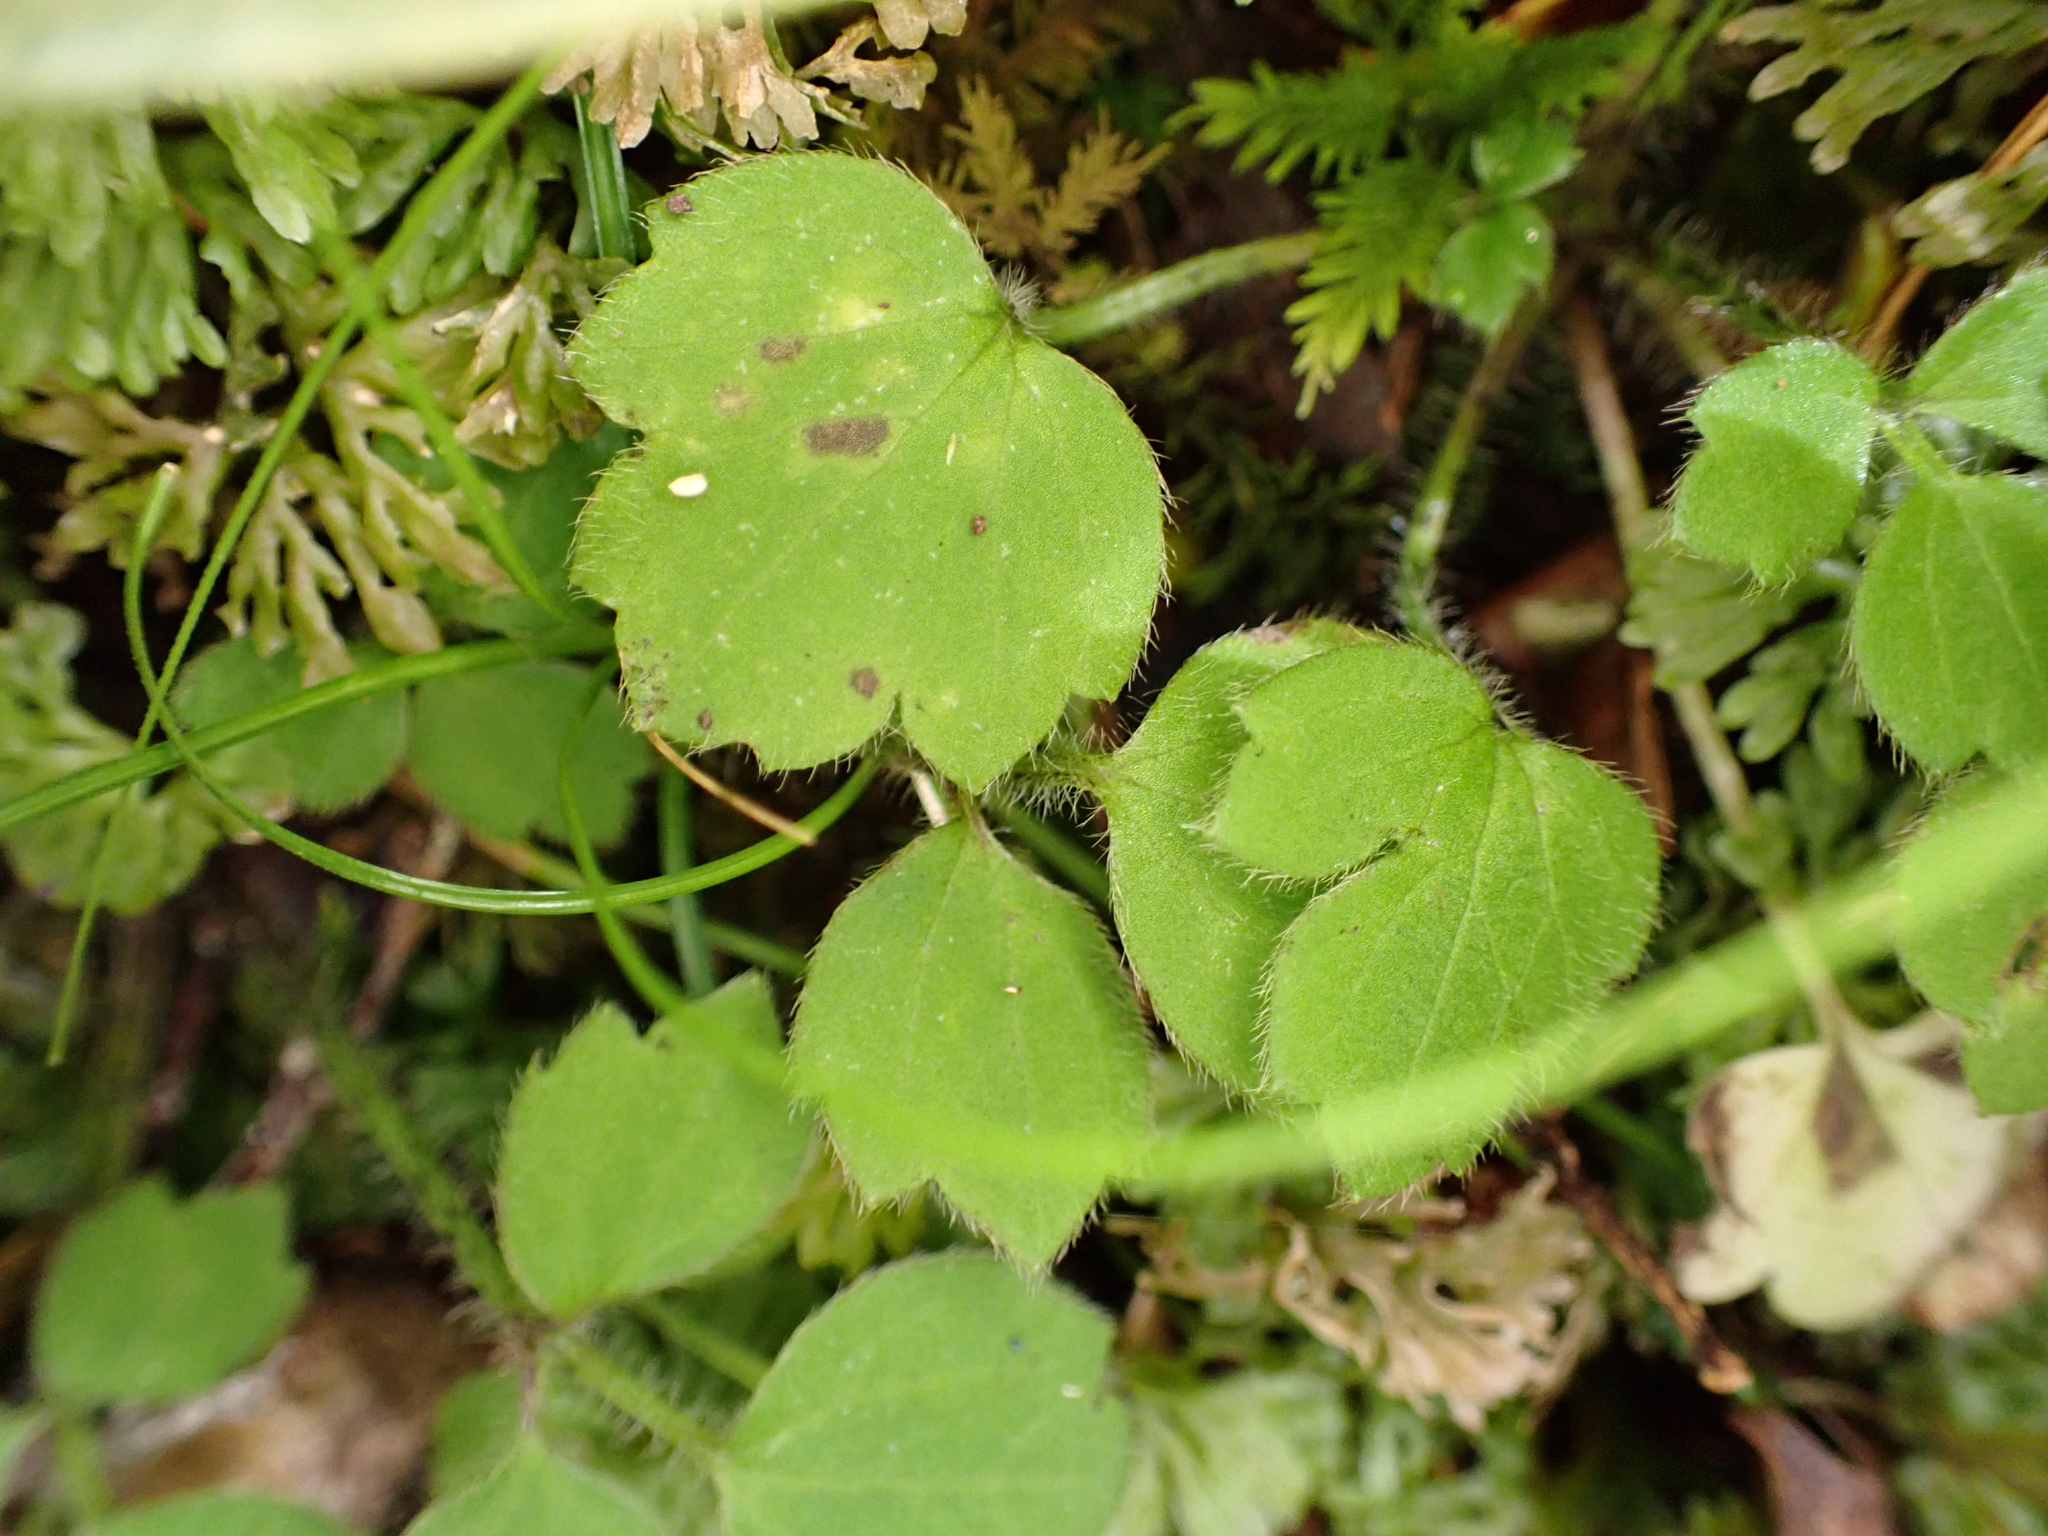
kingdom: Plantae
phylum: Tracheophyta
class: Magnoliopsida
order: Ranunculales
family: Ranunculaceae
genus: Ranunculus
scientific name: Ranunculus reflexus
